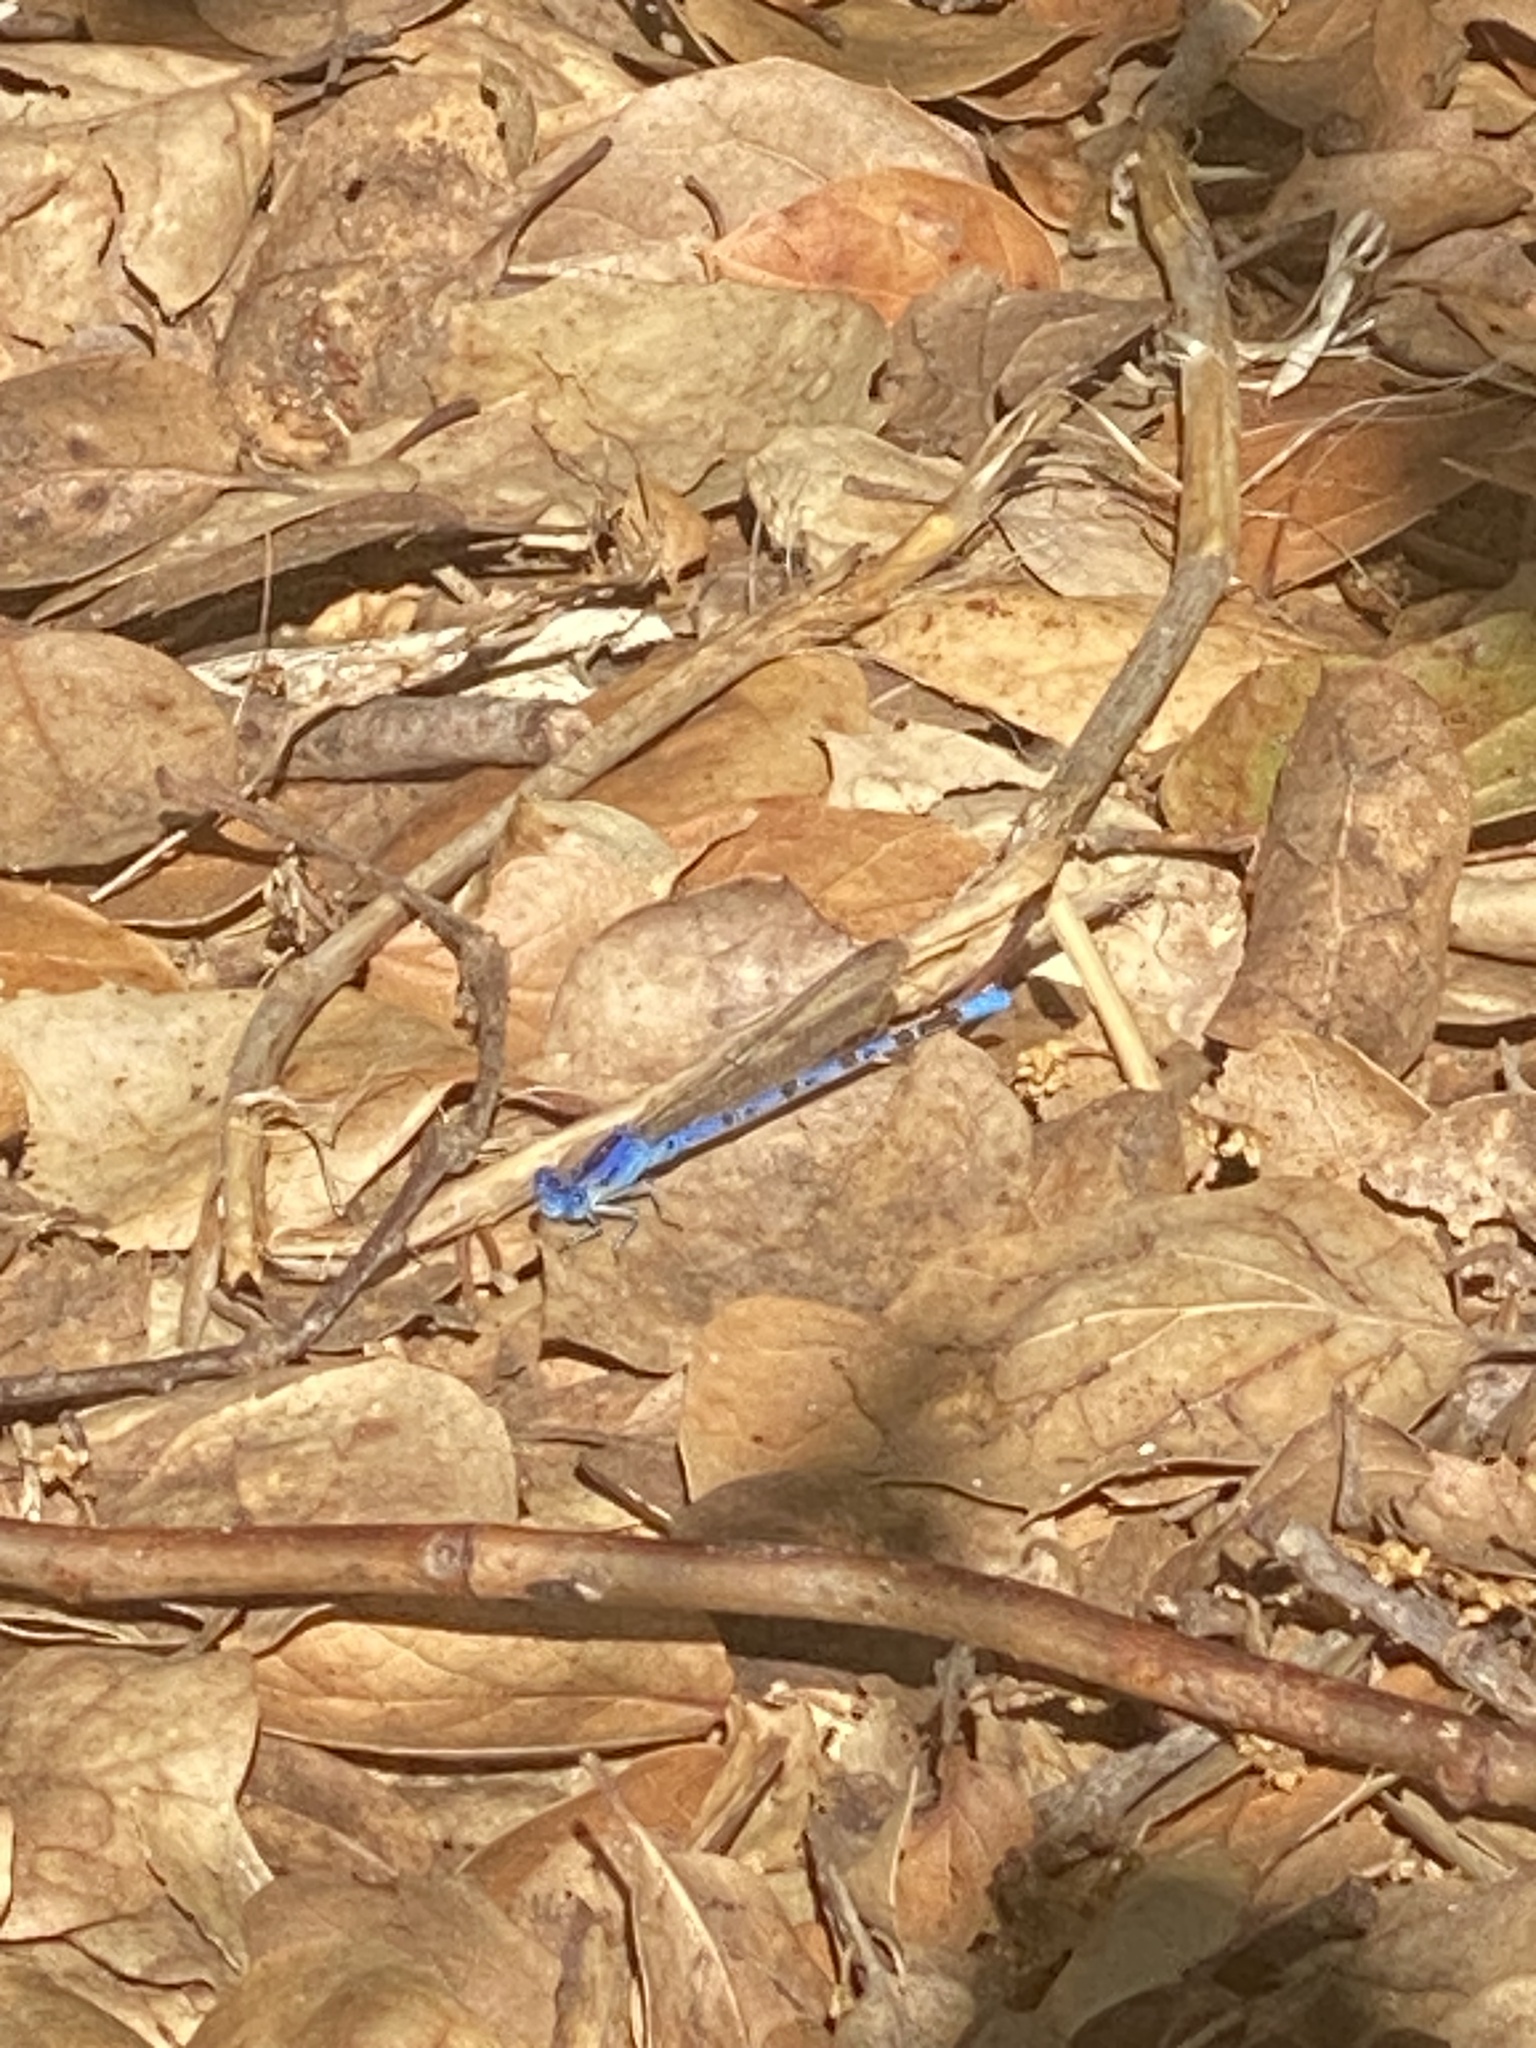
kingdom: Animalia
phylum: Arthropoda
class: Insecta
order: Odonata
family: Coenagrionidae
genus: Argia
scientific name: Argia vivida
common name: Vivid dancer
